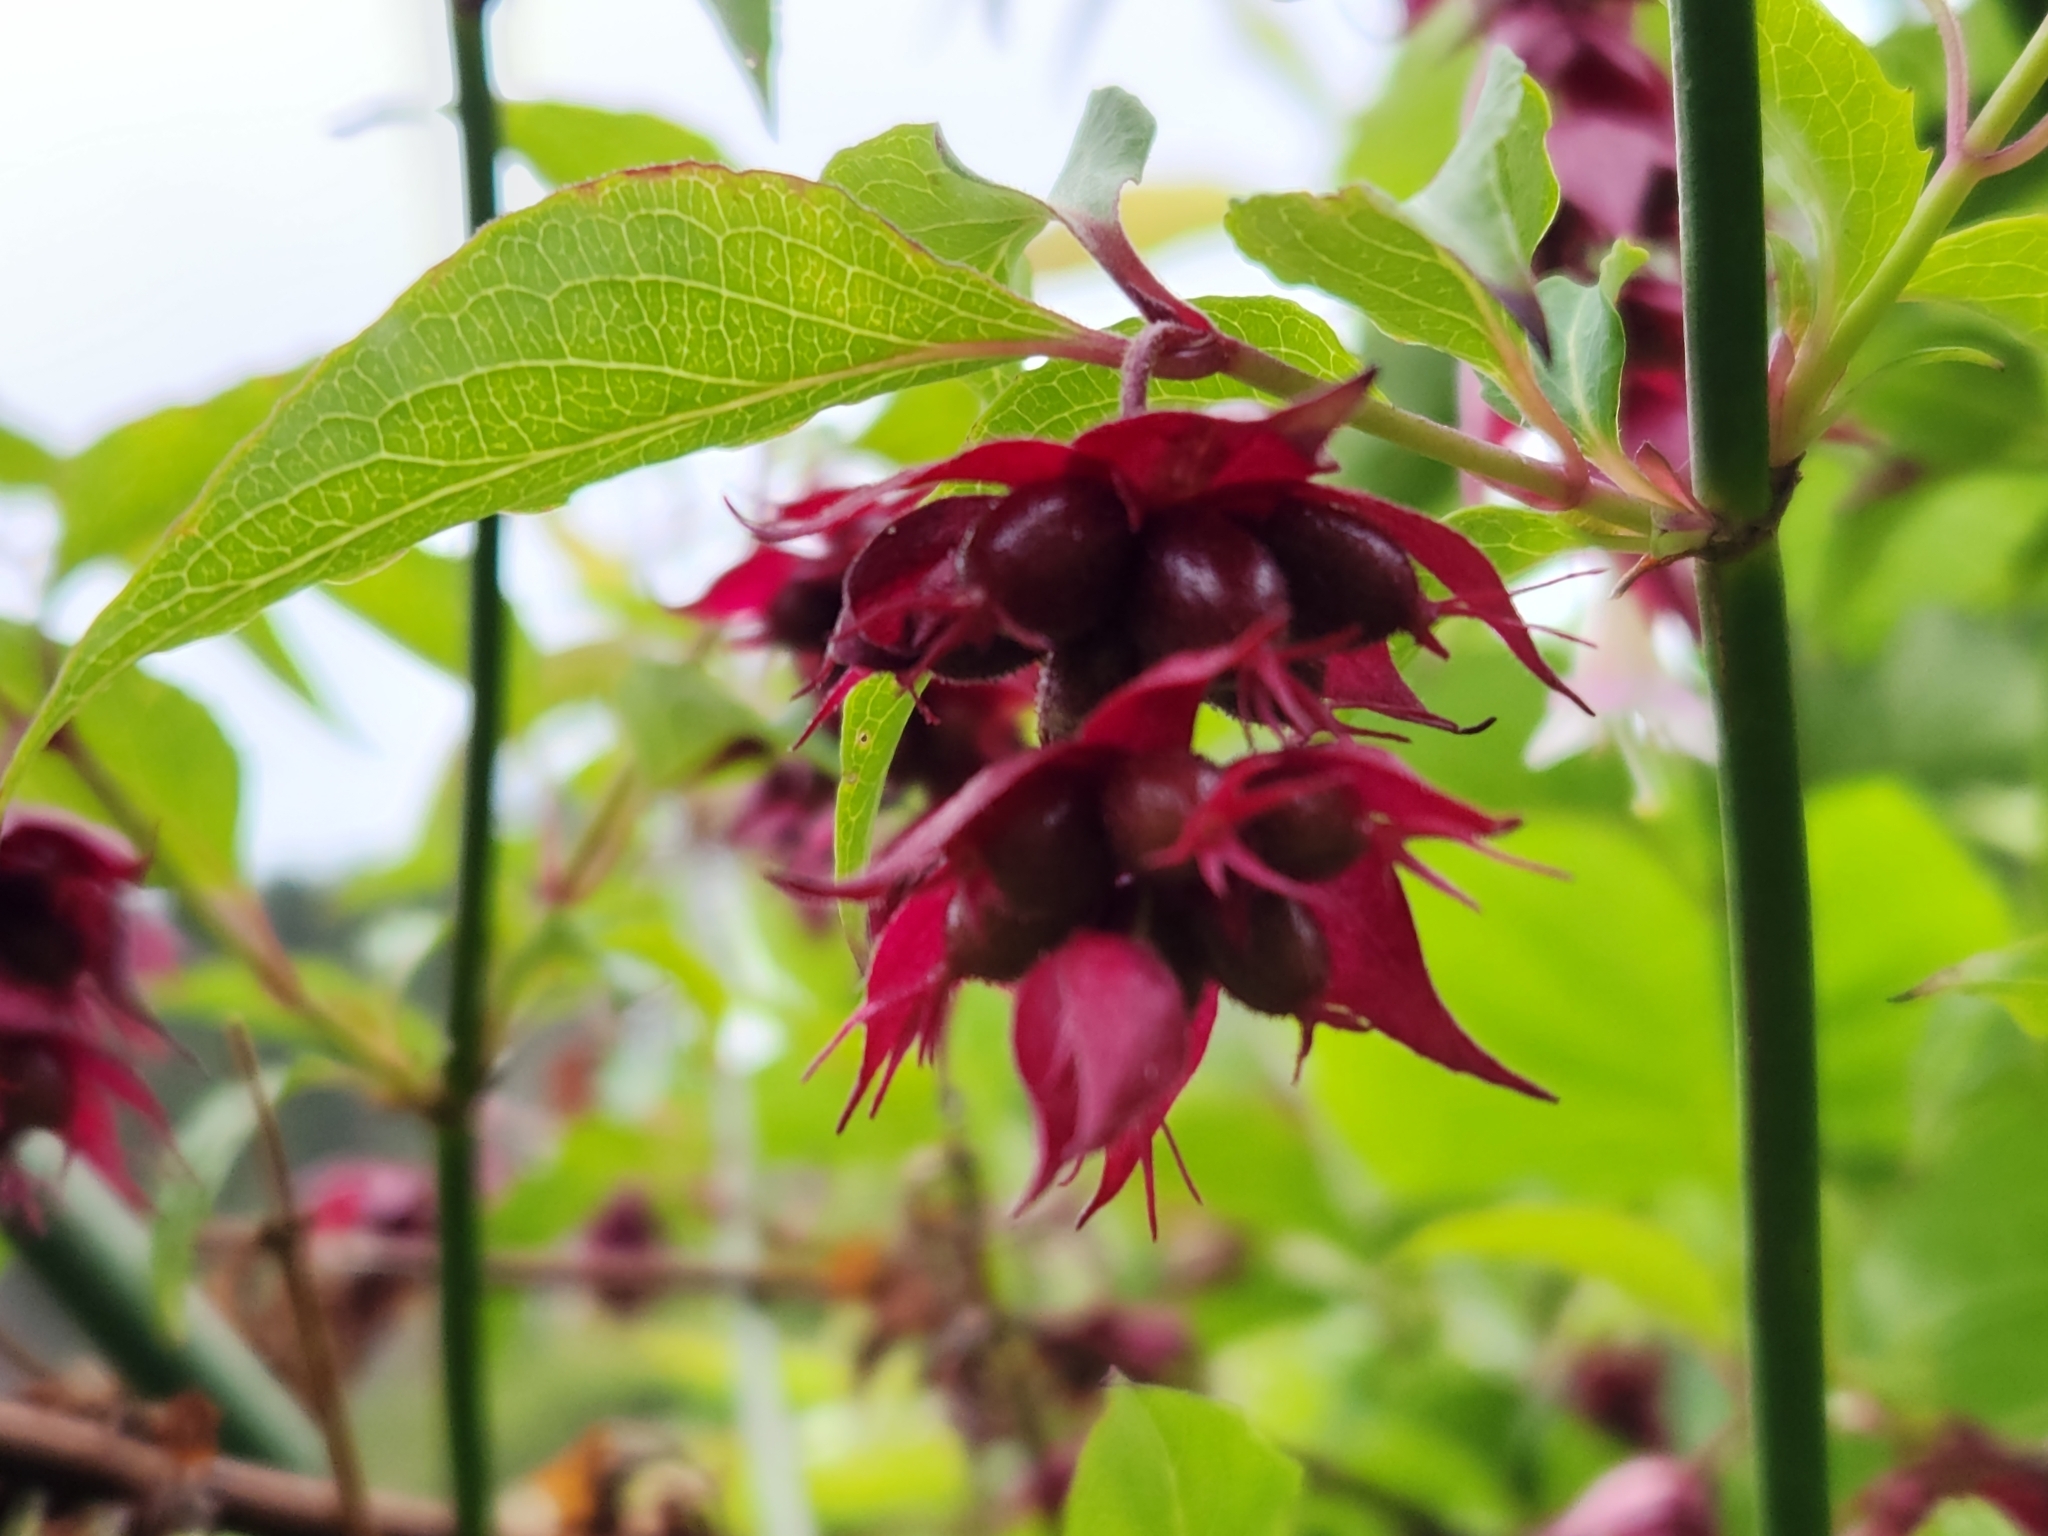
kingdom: Plantae
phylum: Tracheophyta
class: Magnoliopsida
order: Dipsacales
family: Caprifoliaceae
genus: Leycesteria
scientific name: Leycesteria formosa
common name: Himalayan honeysuckle
